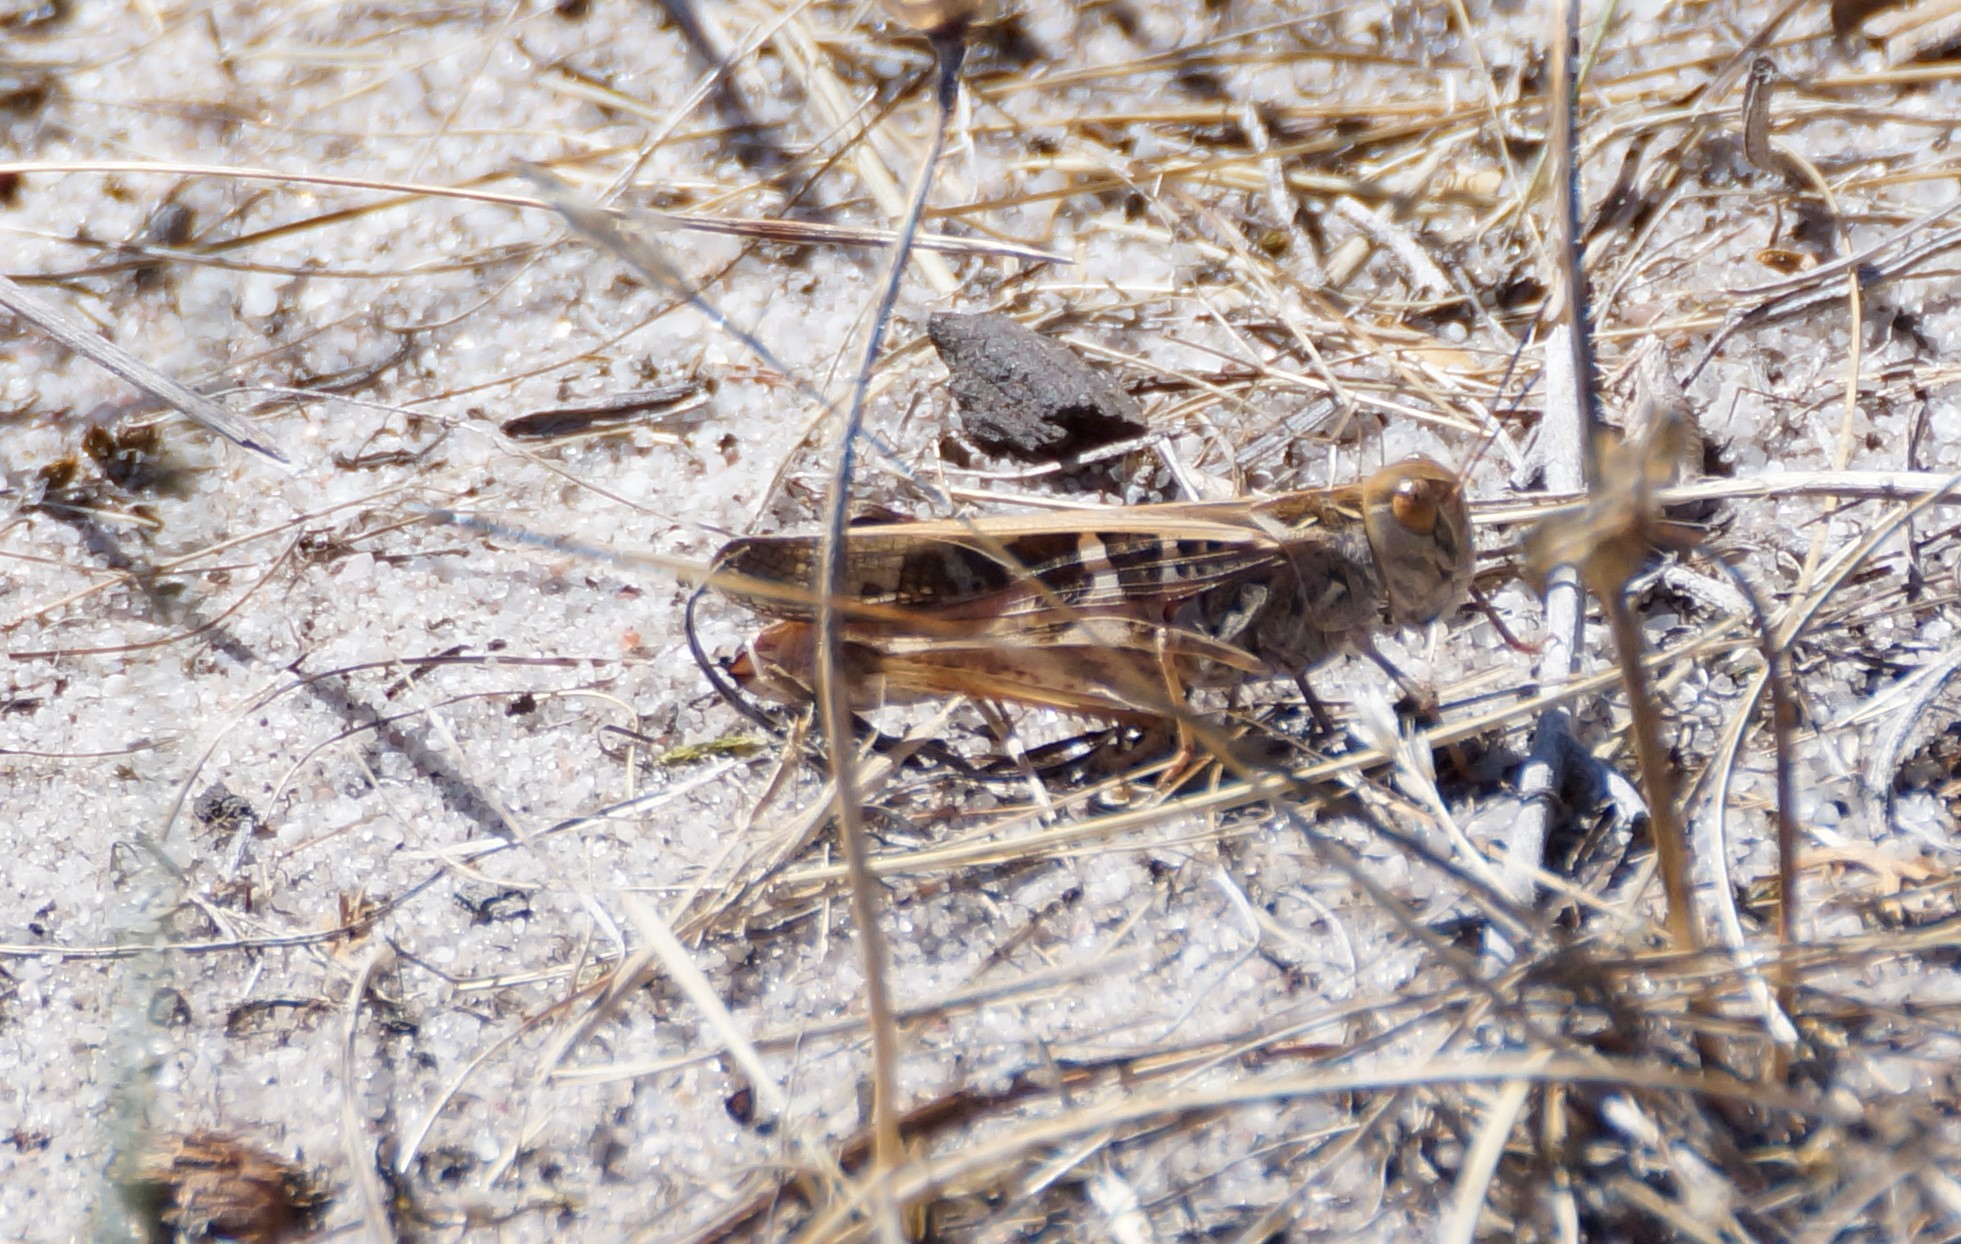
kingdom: Animalia
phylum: Arthropoda
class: Insecta
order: Orthoptera
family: Acrididae
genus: Oedaleus
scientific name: Oedaleus australis
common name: Eastern oedaleus
